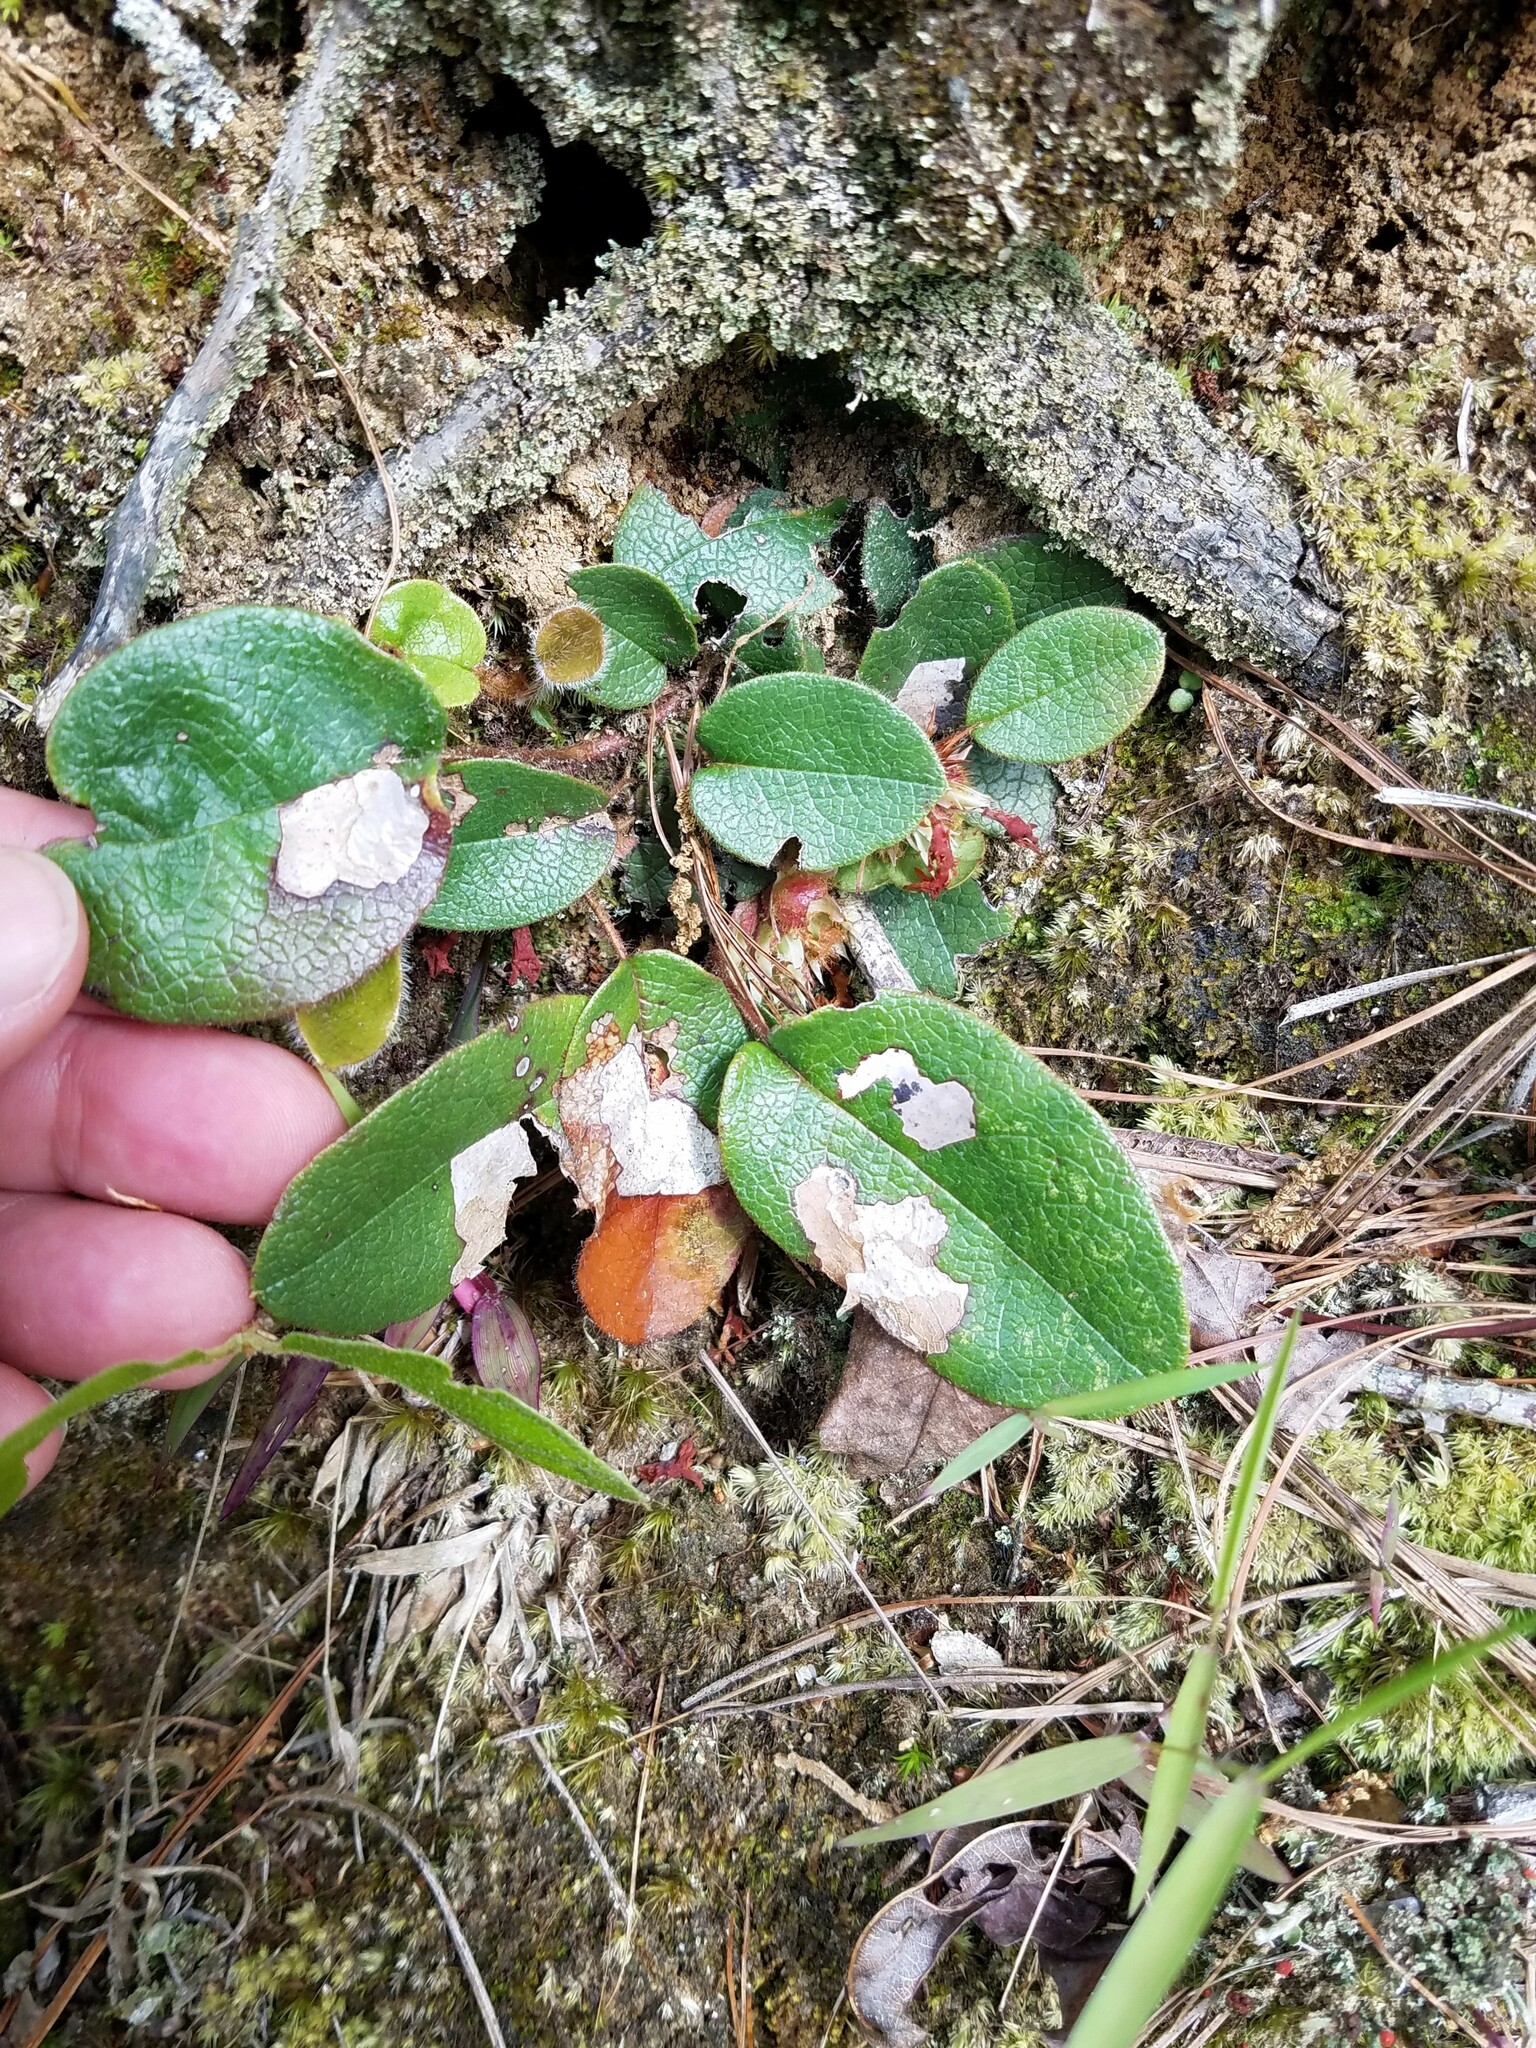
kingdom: Plantae
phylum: Tracheophyta
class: Magnoliopsida
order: Ericales
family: Ericaceae
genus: Epigaea
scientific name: Epigaea repens
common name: Gravelroot
